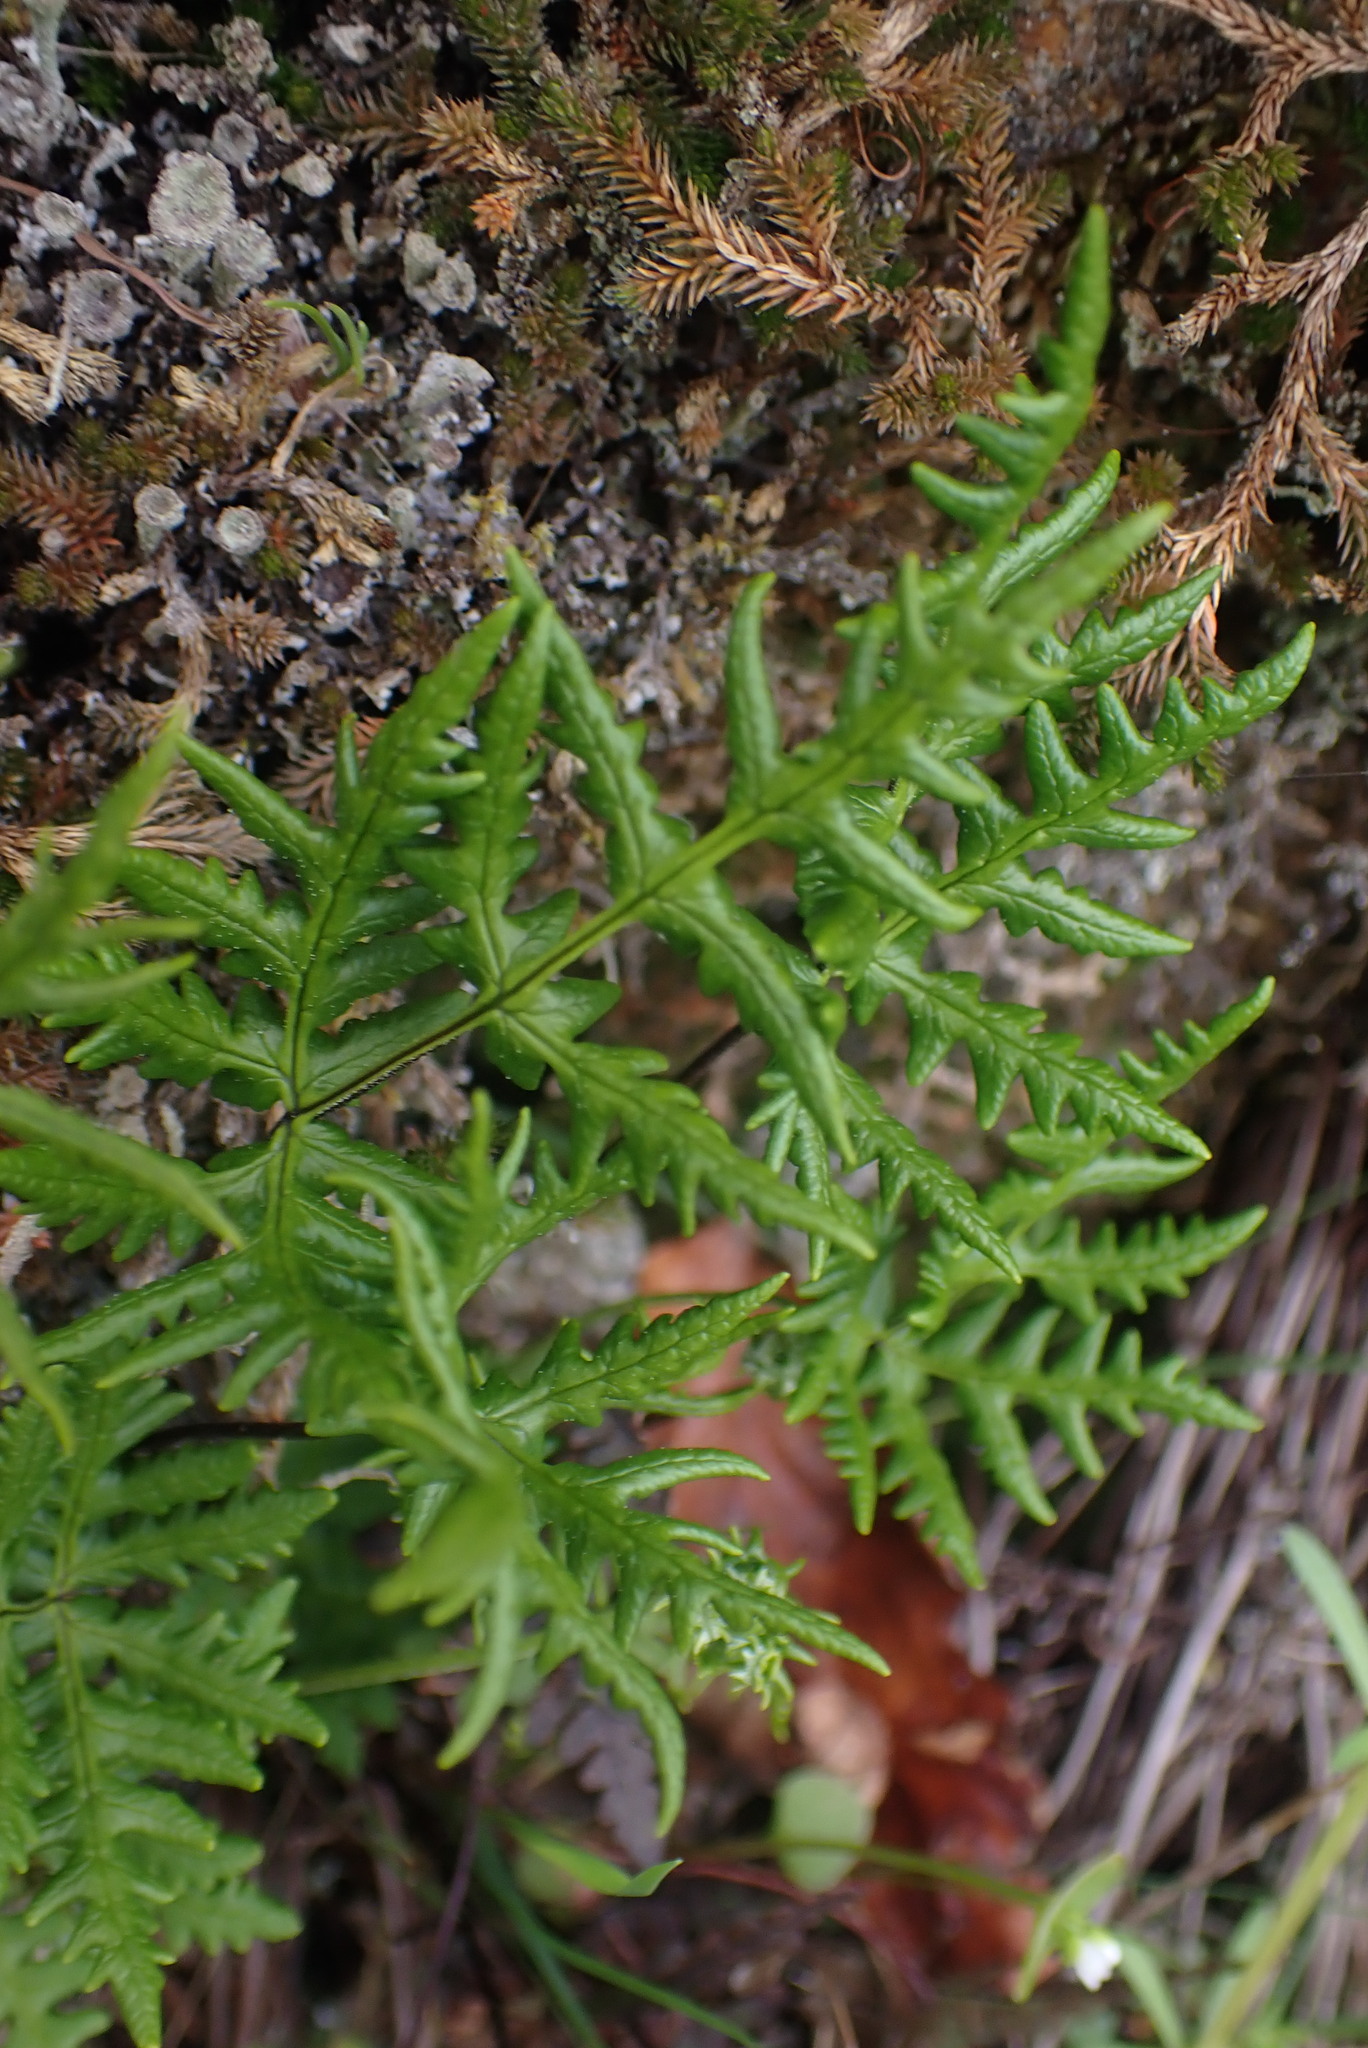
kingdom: Plantae
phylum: Tracheophyta
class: Polypodiopsida
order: Polypodiales
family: Pteridaceae
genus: Pentagramma
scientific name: Pentagramma triangularis
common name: Gold fern
